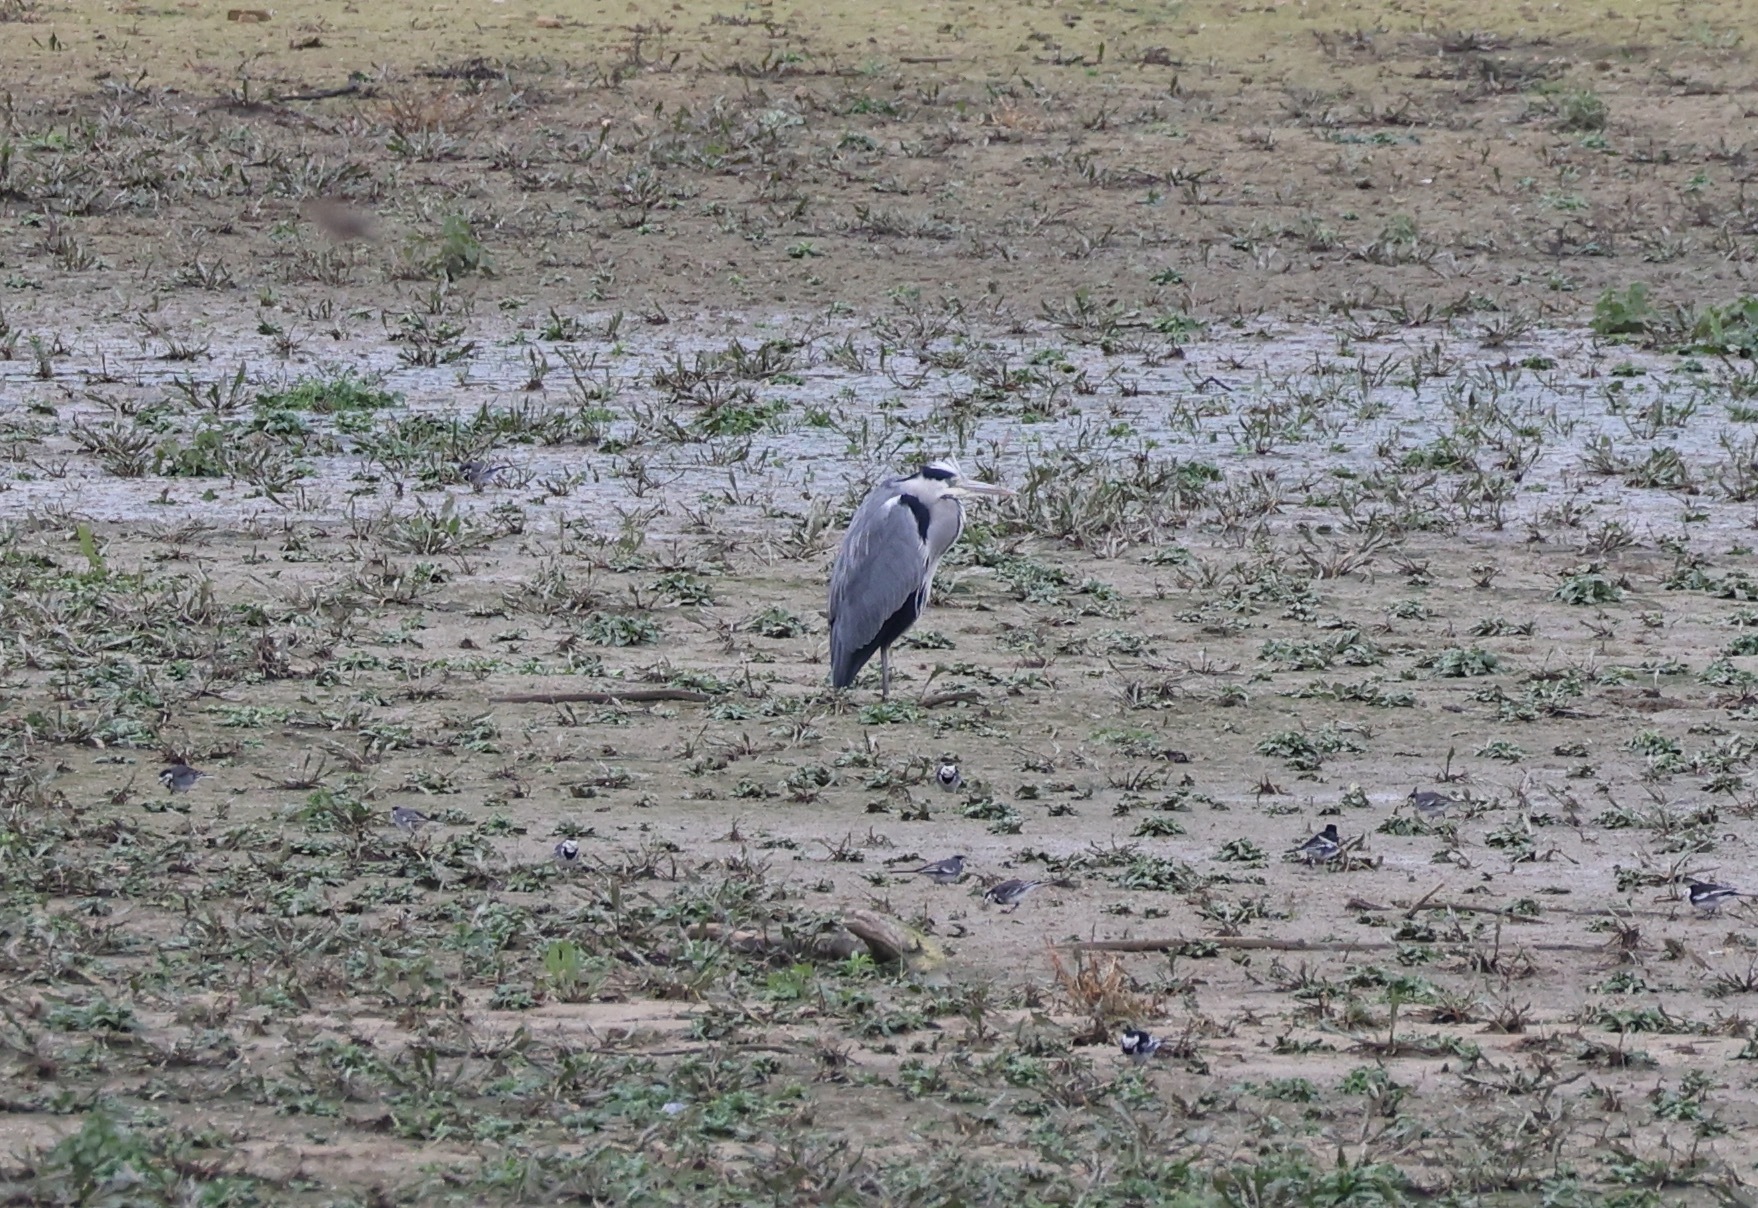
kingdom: Animalia
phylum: Chordata
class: Aves
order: Pelecaniformes
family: Ardeidae
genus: Ardea
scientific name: Ardea cinerea
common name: Grey heron
